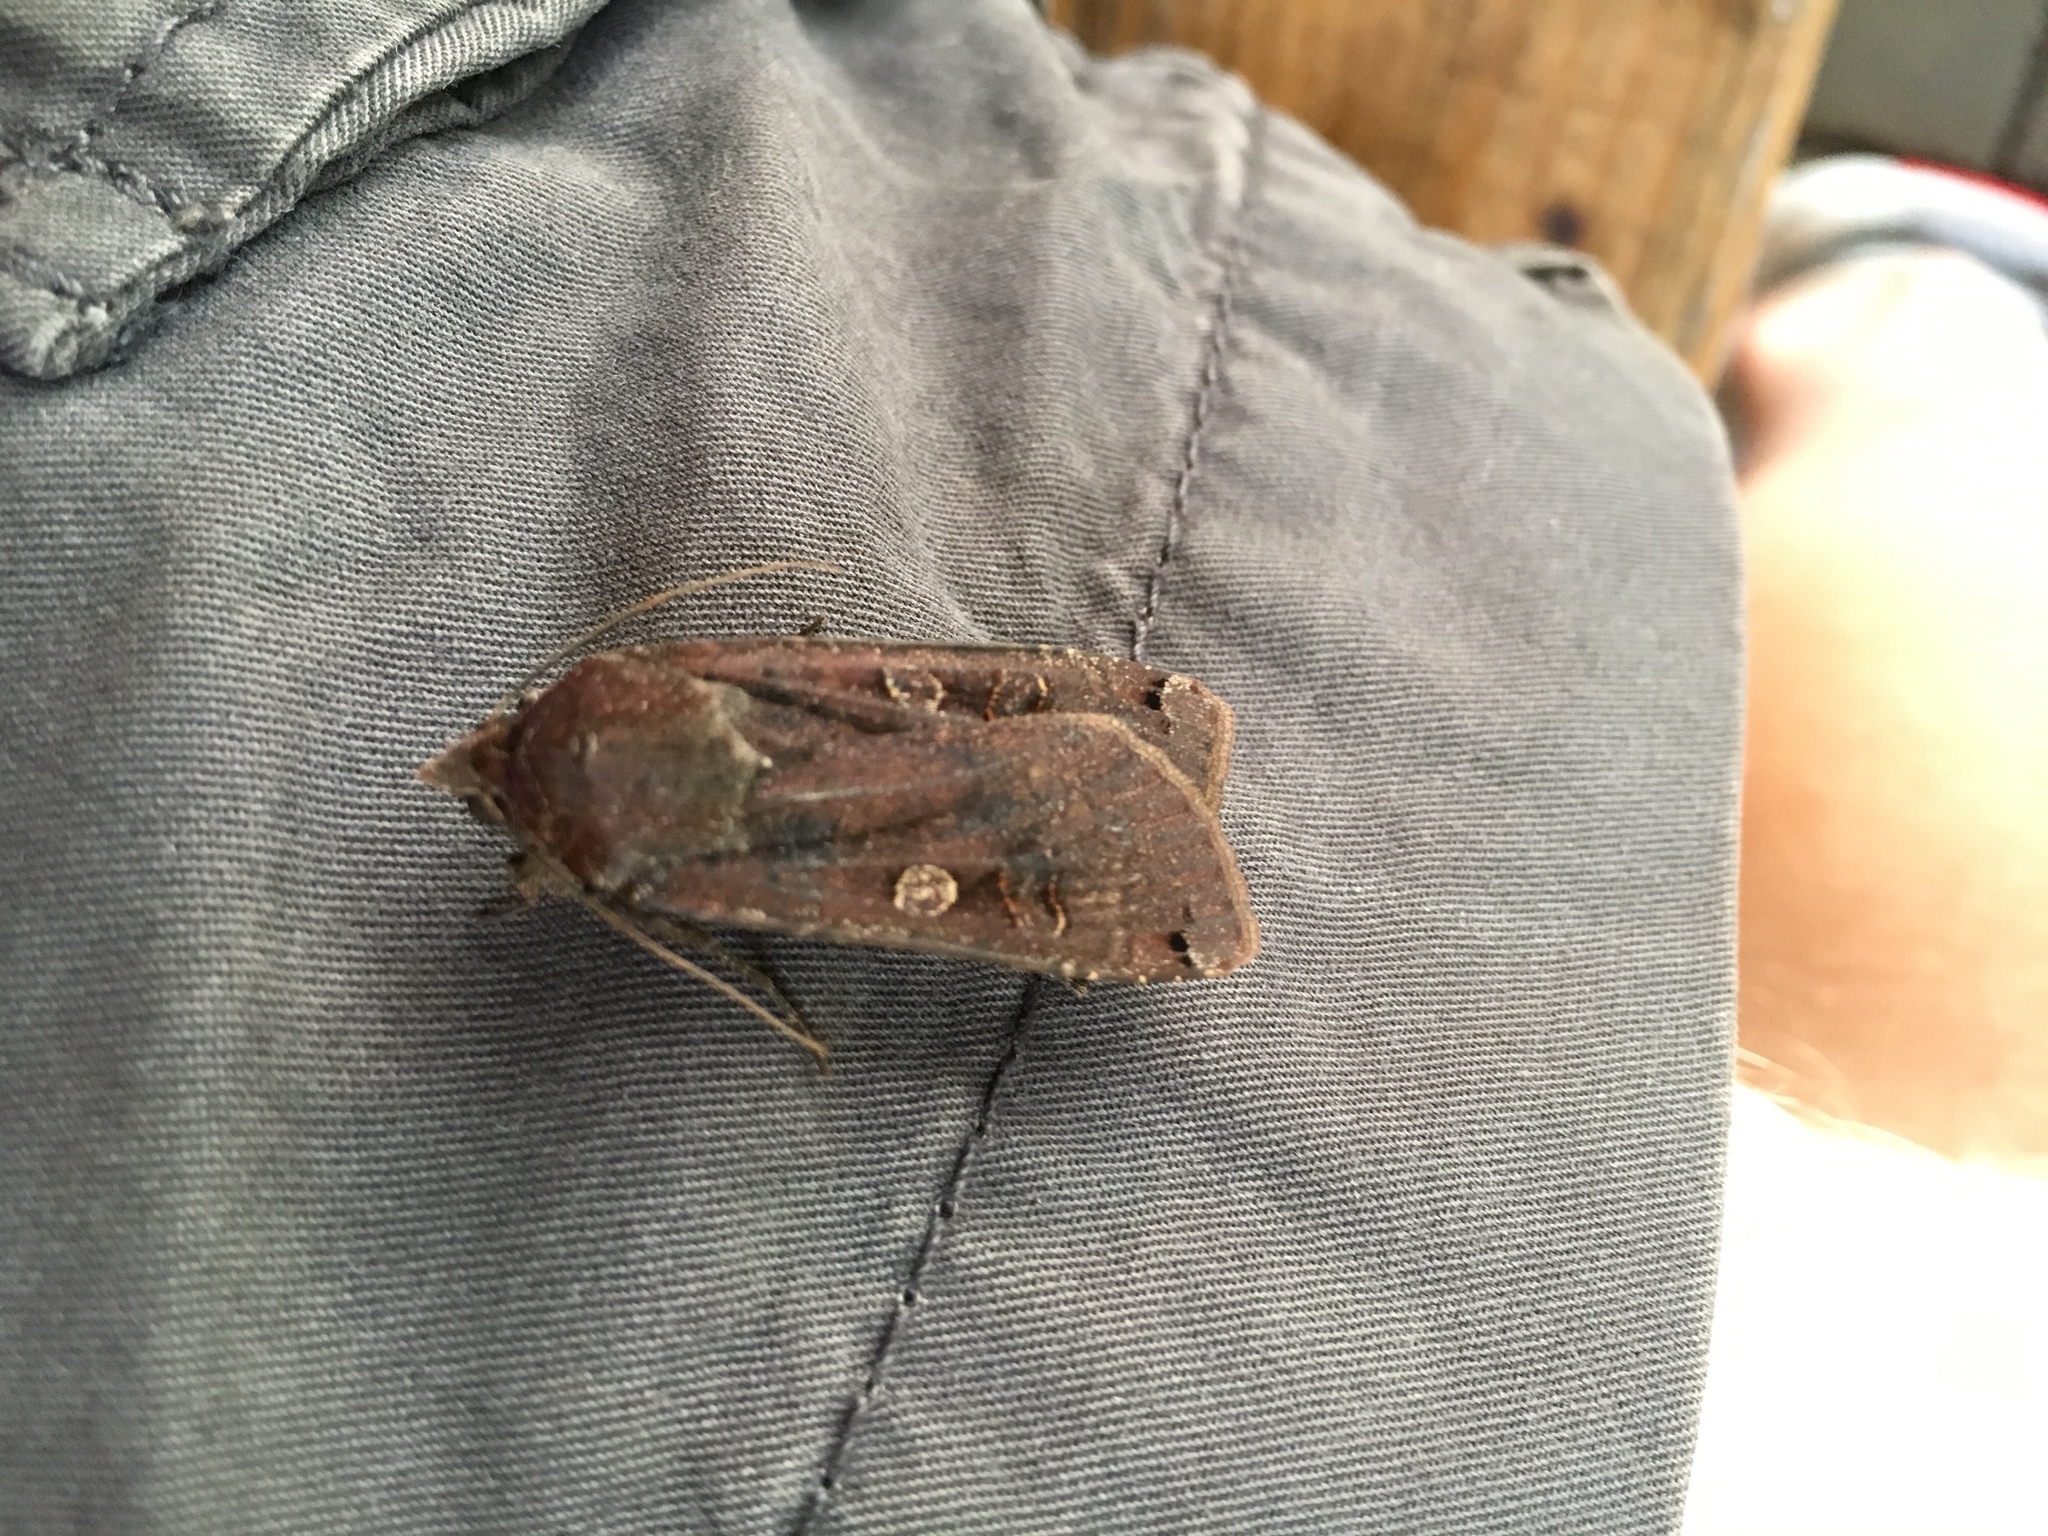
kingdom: Animalia
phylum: Arthropoda
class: Insecta
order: Lepidoptera
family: Noctuidae
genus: Noctua
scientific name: Noctua pronuba
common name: Large yellow underwing
